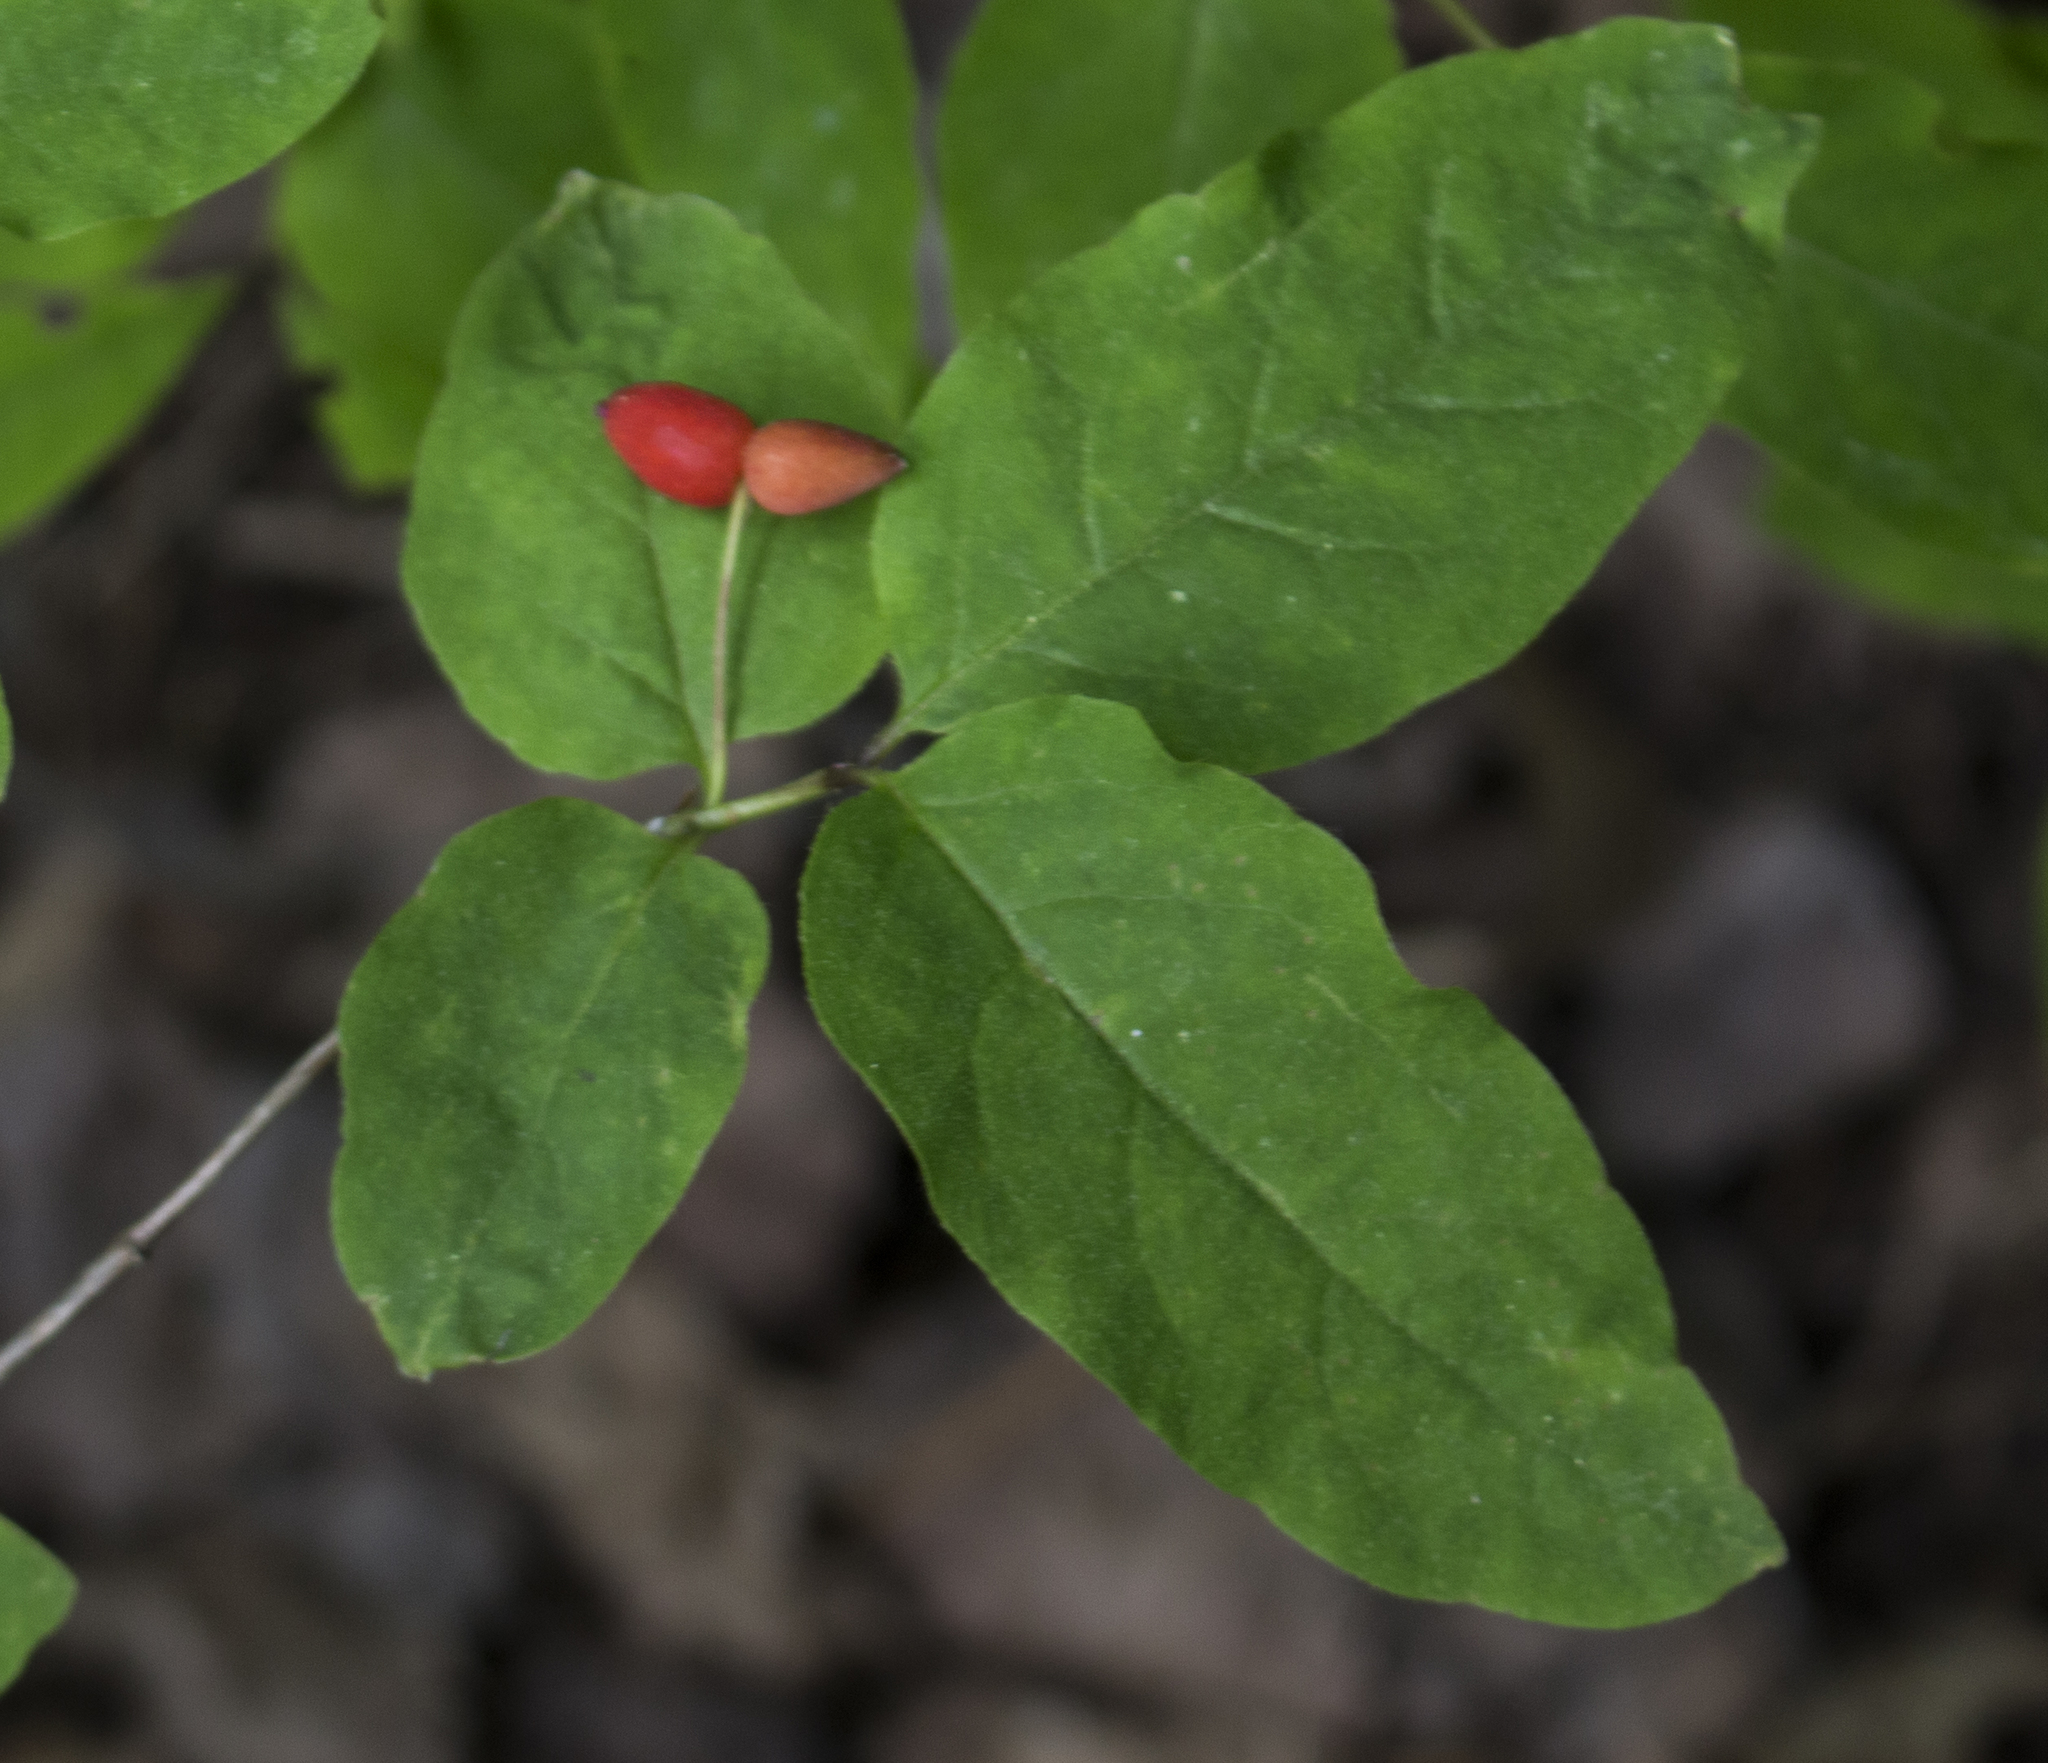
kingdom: Plantae
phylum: Tracheophyta
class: Magnoliopsida
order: Dipsacales
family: Caprifoliaceae
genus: Lonicera
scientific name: Lonicera canadensis
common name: American fly-honeysuckle
